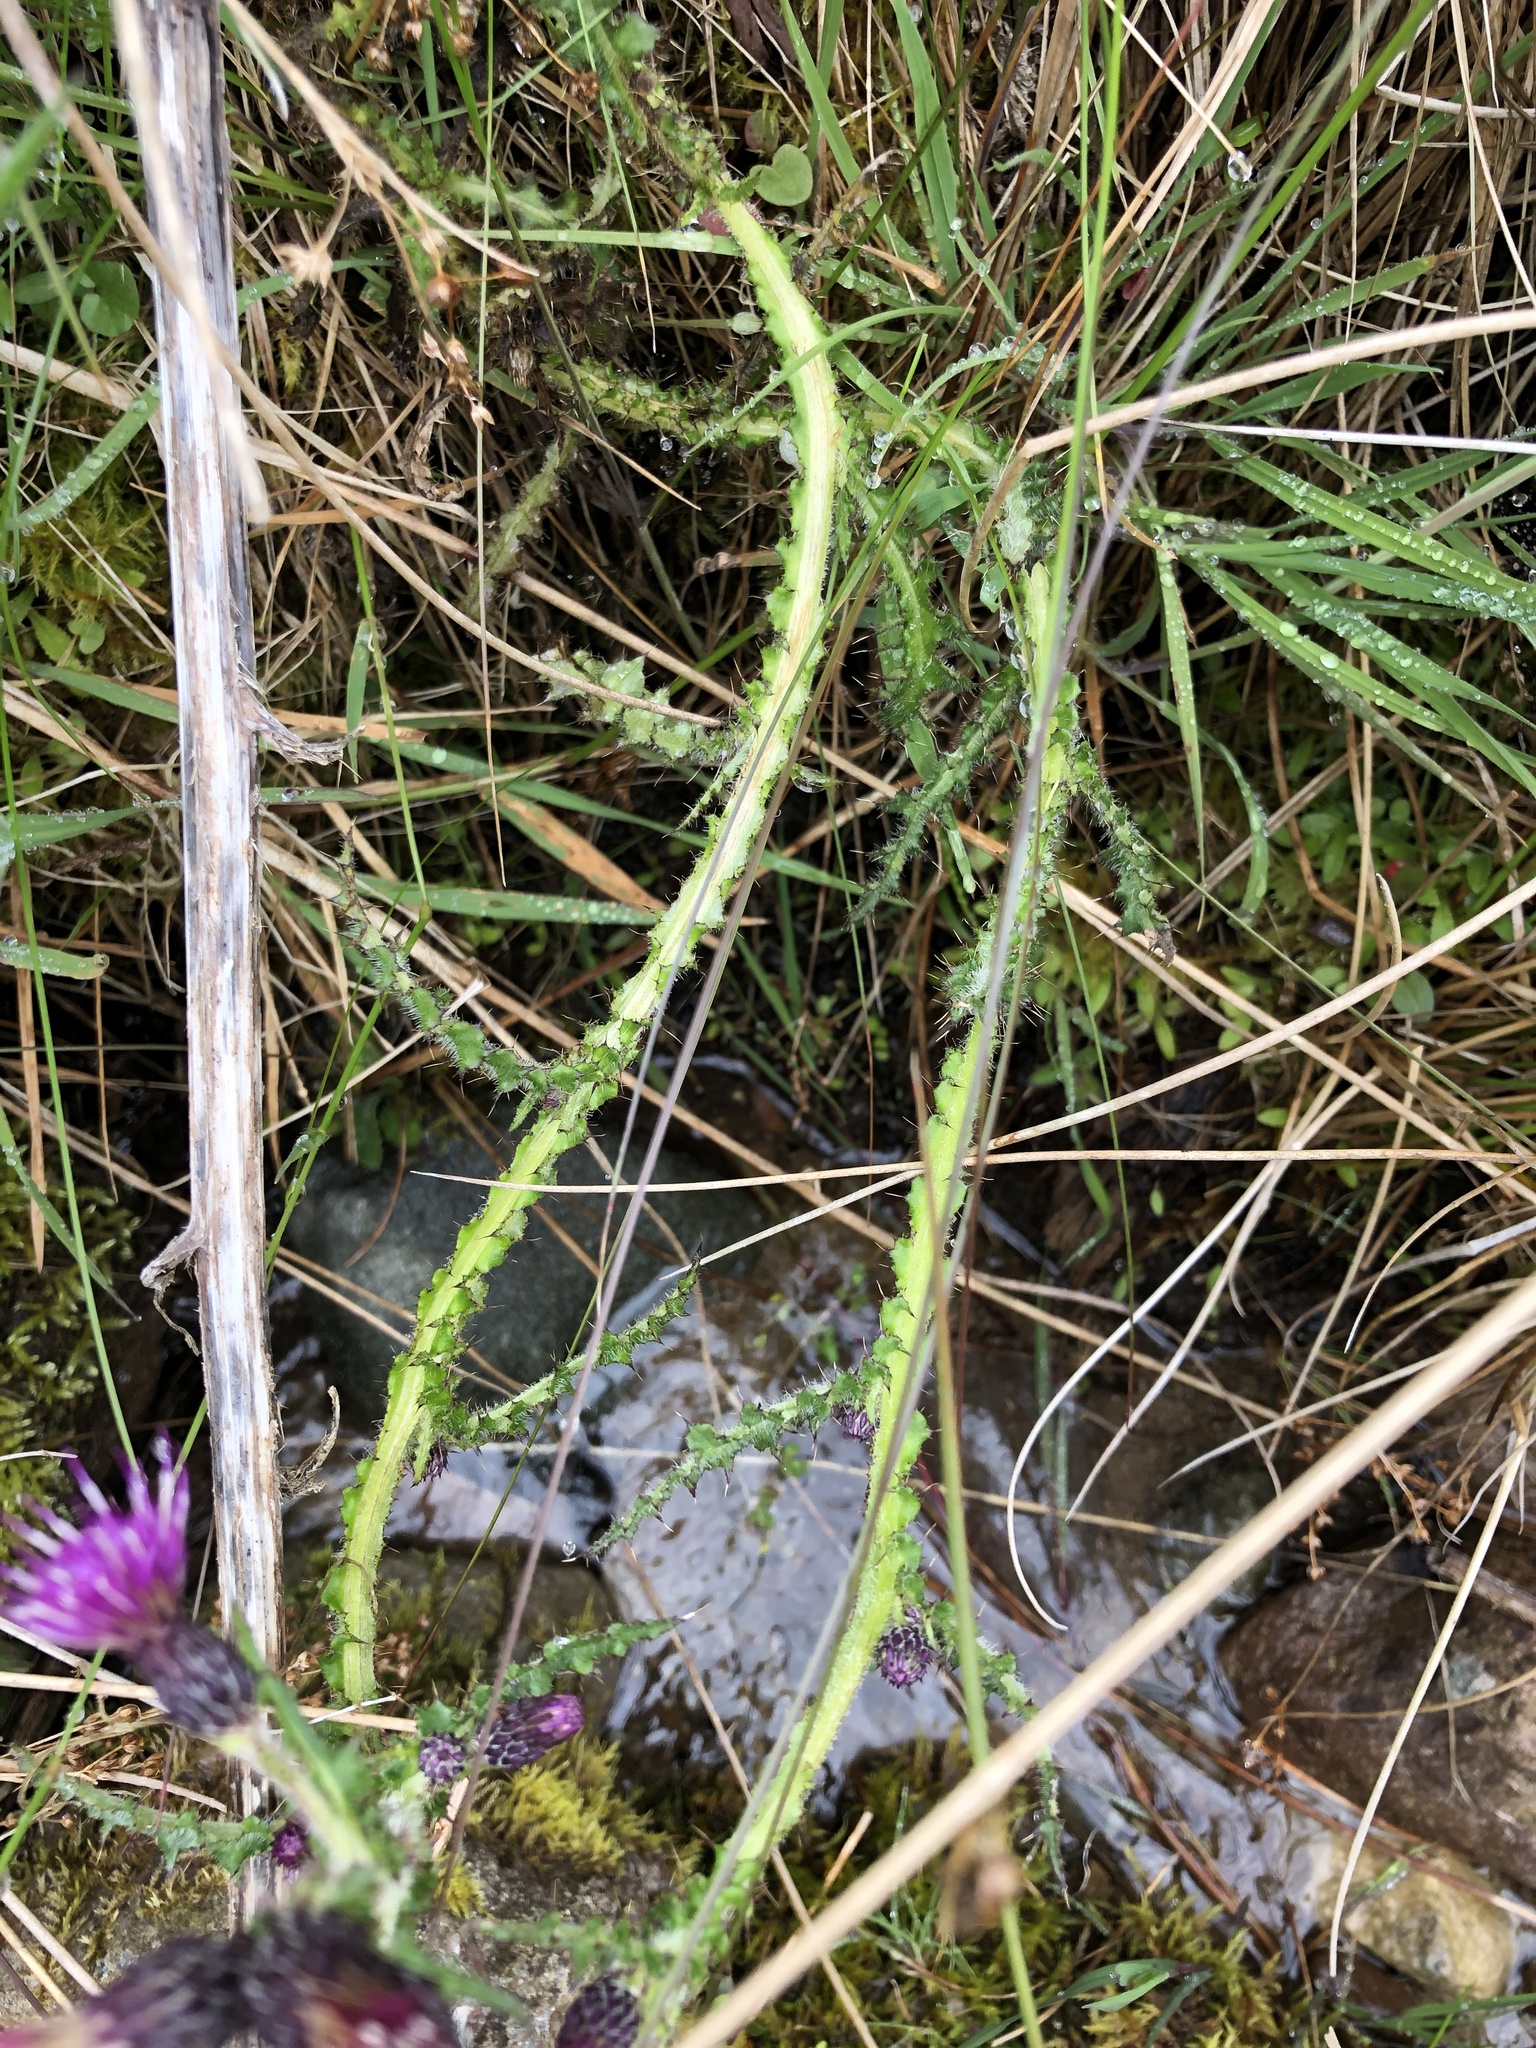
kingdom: Plantae
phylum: Tracheophyta
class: Magnoliopsida
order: Asterales
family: Asteraceae
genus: Cirsium
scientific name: Cirsium palustre
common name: Marsh thistle
